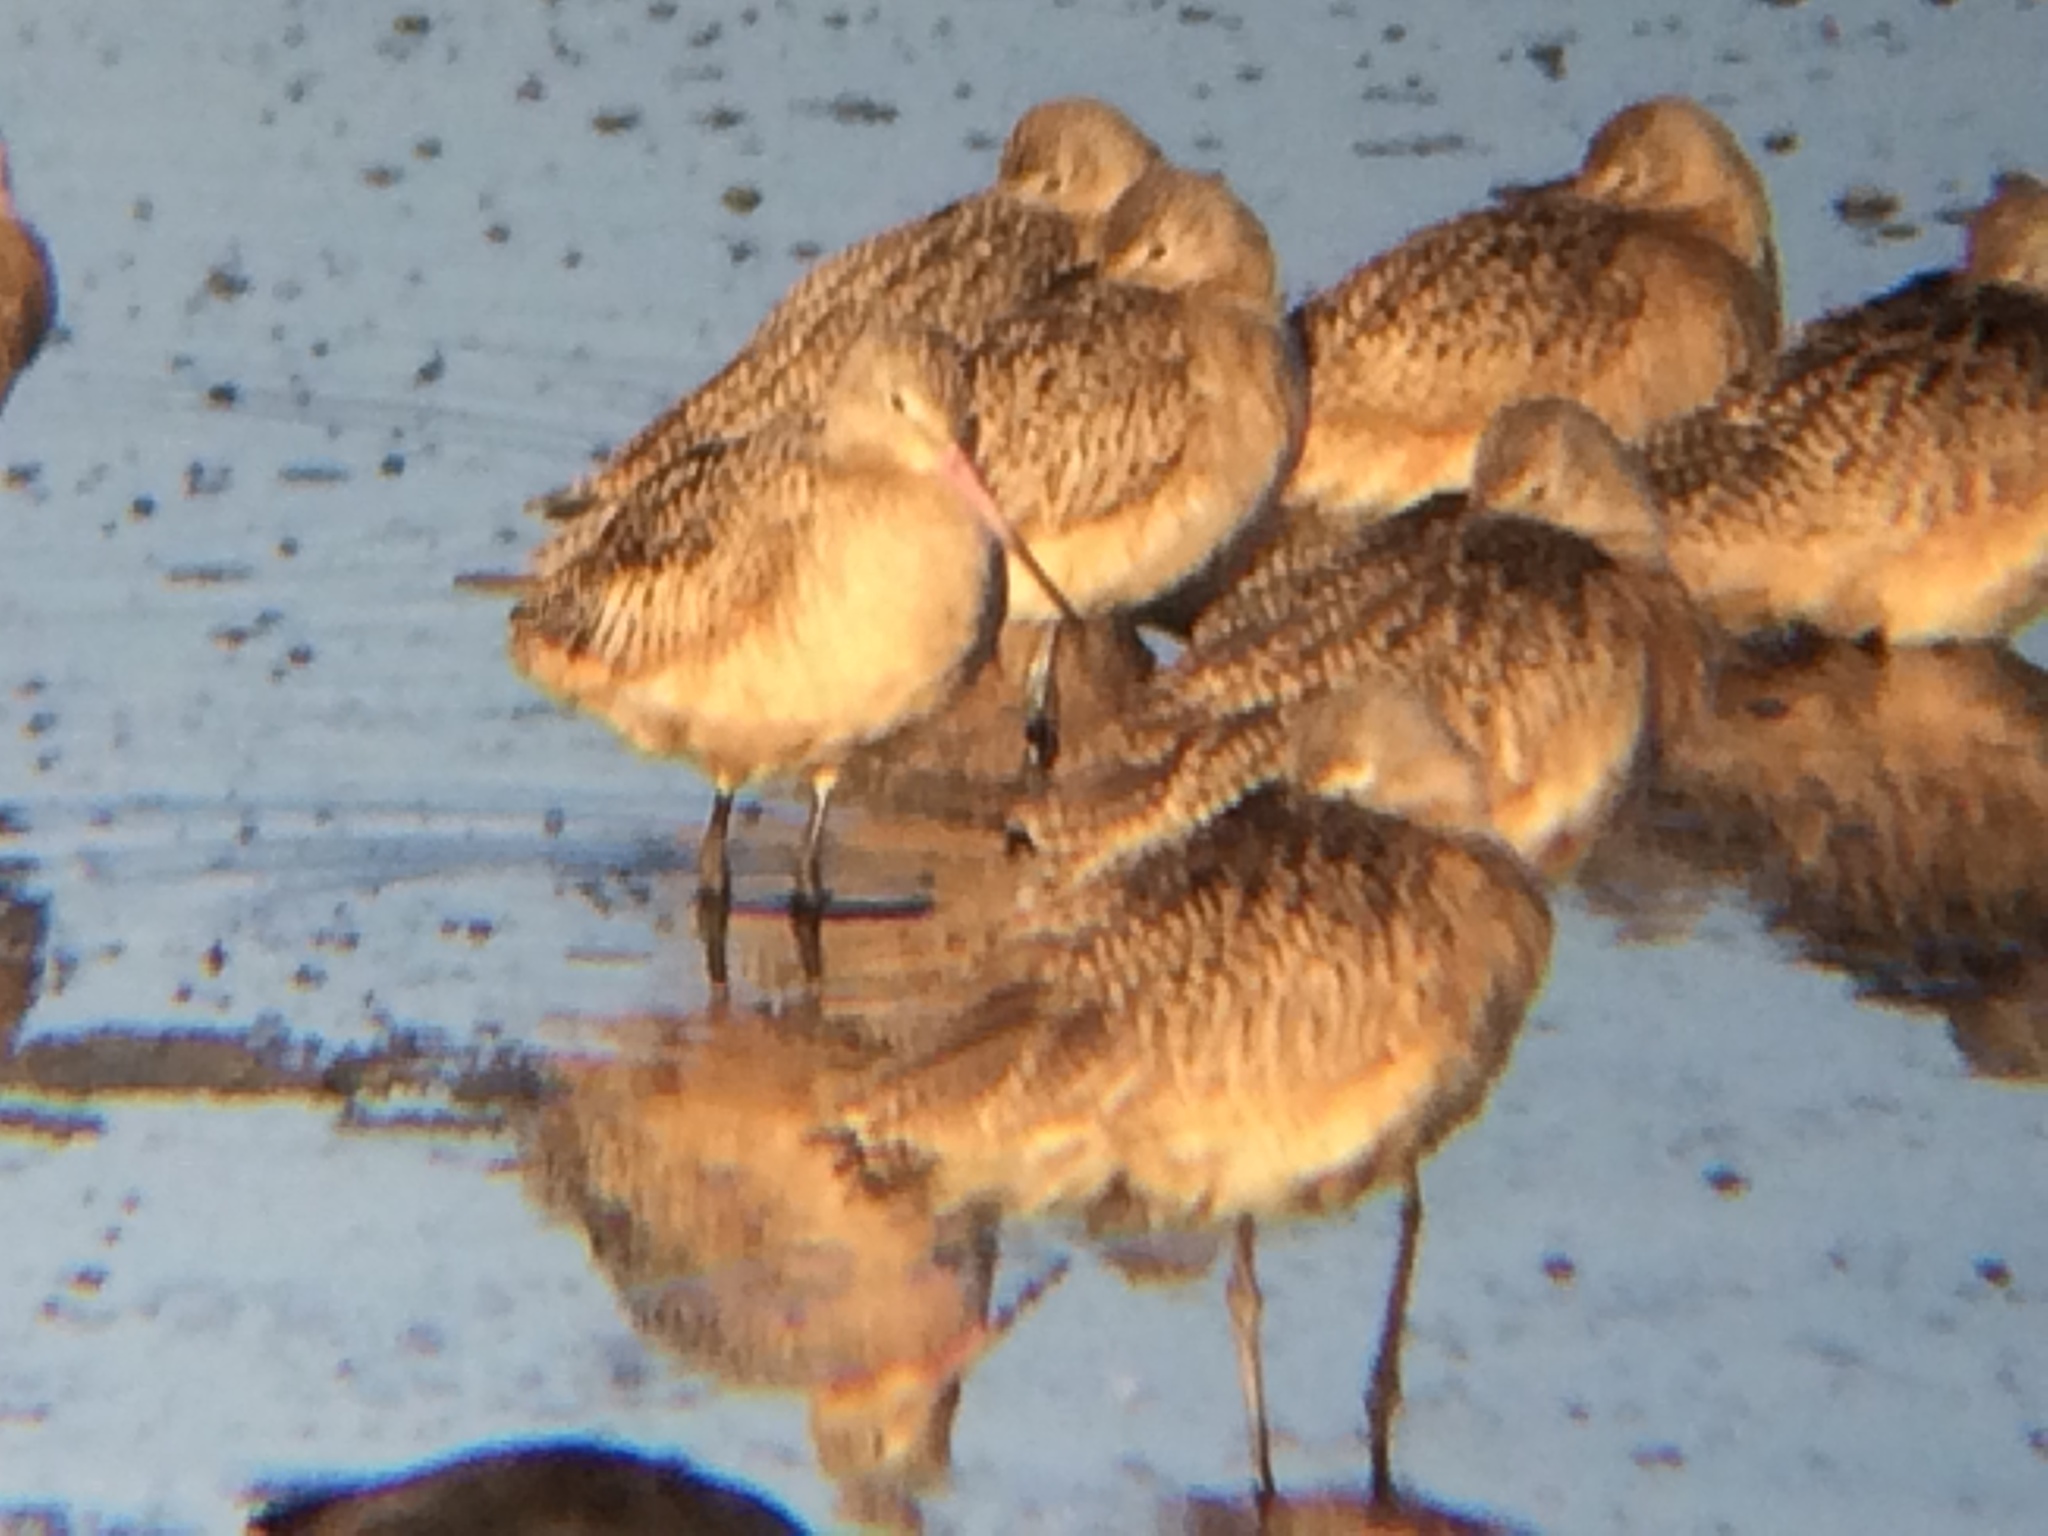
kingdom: Animalia
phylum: Chordata
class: Aves
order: Charadriiformes
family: Scolopacidae
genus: Limosa
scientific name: Limosa fedoa
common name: Marbled godwit
